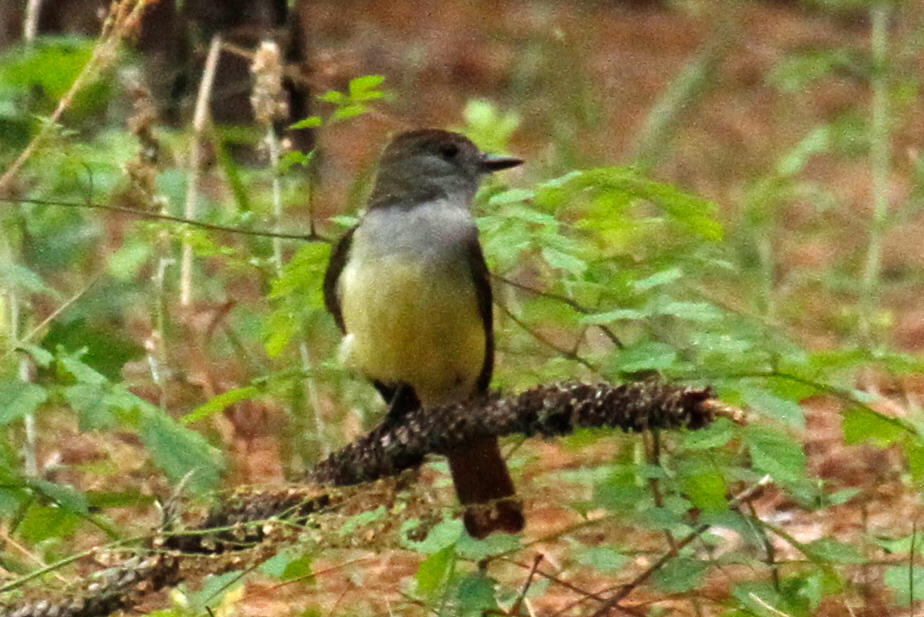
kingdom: Animalia
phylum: Chordata
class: Aves
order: Passeriformes
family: Tyrannidae
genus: Myiarchus
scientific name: Myiarchus crinitus
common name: Great crested flycatcher
